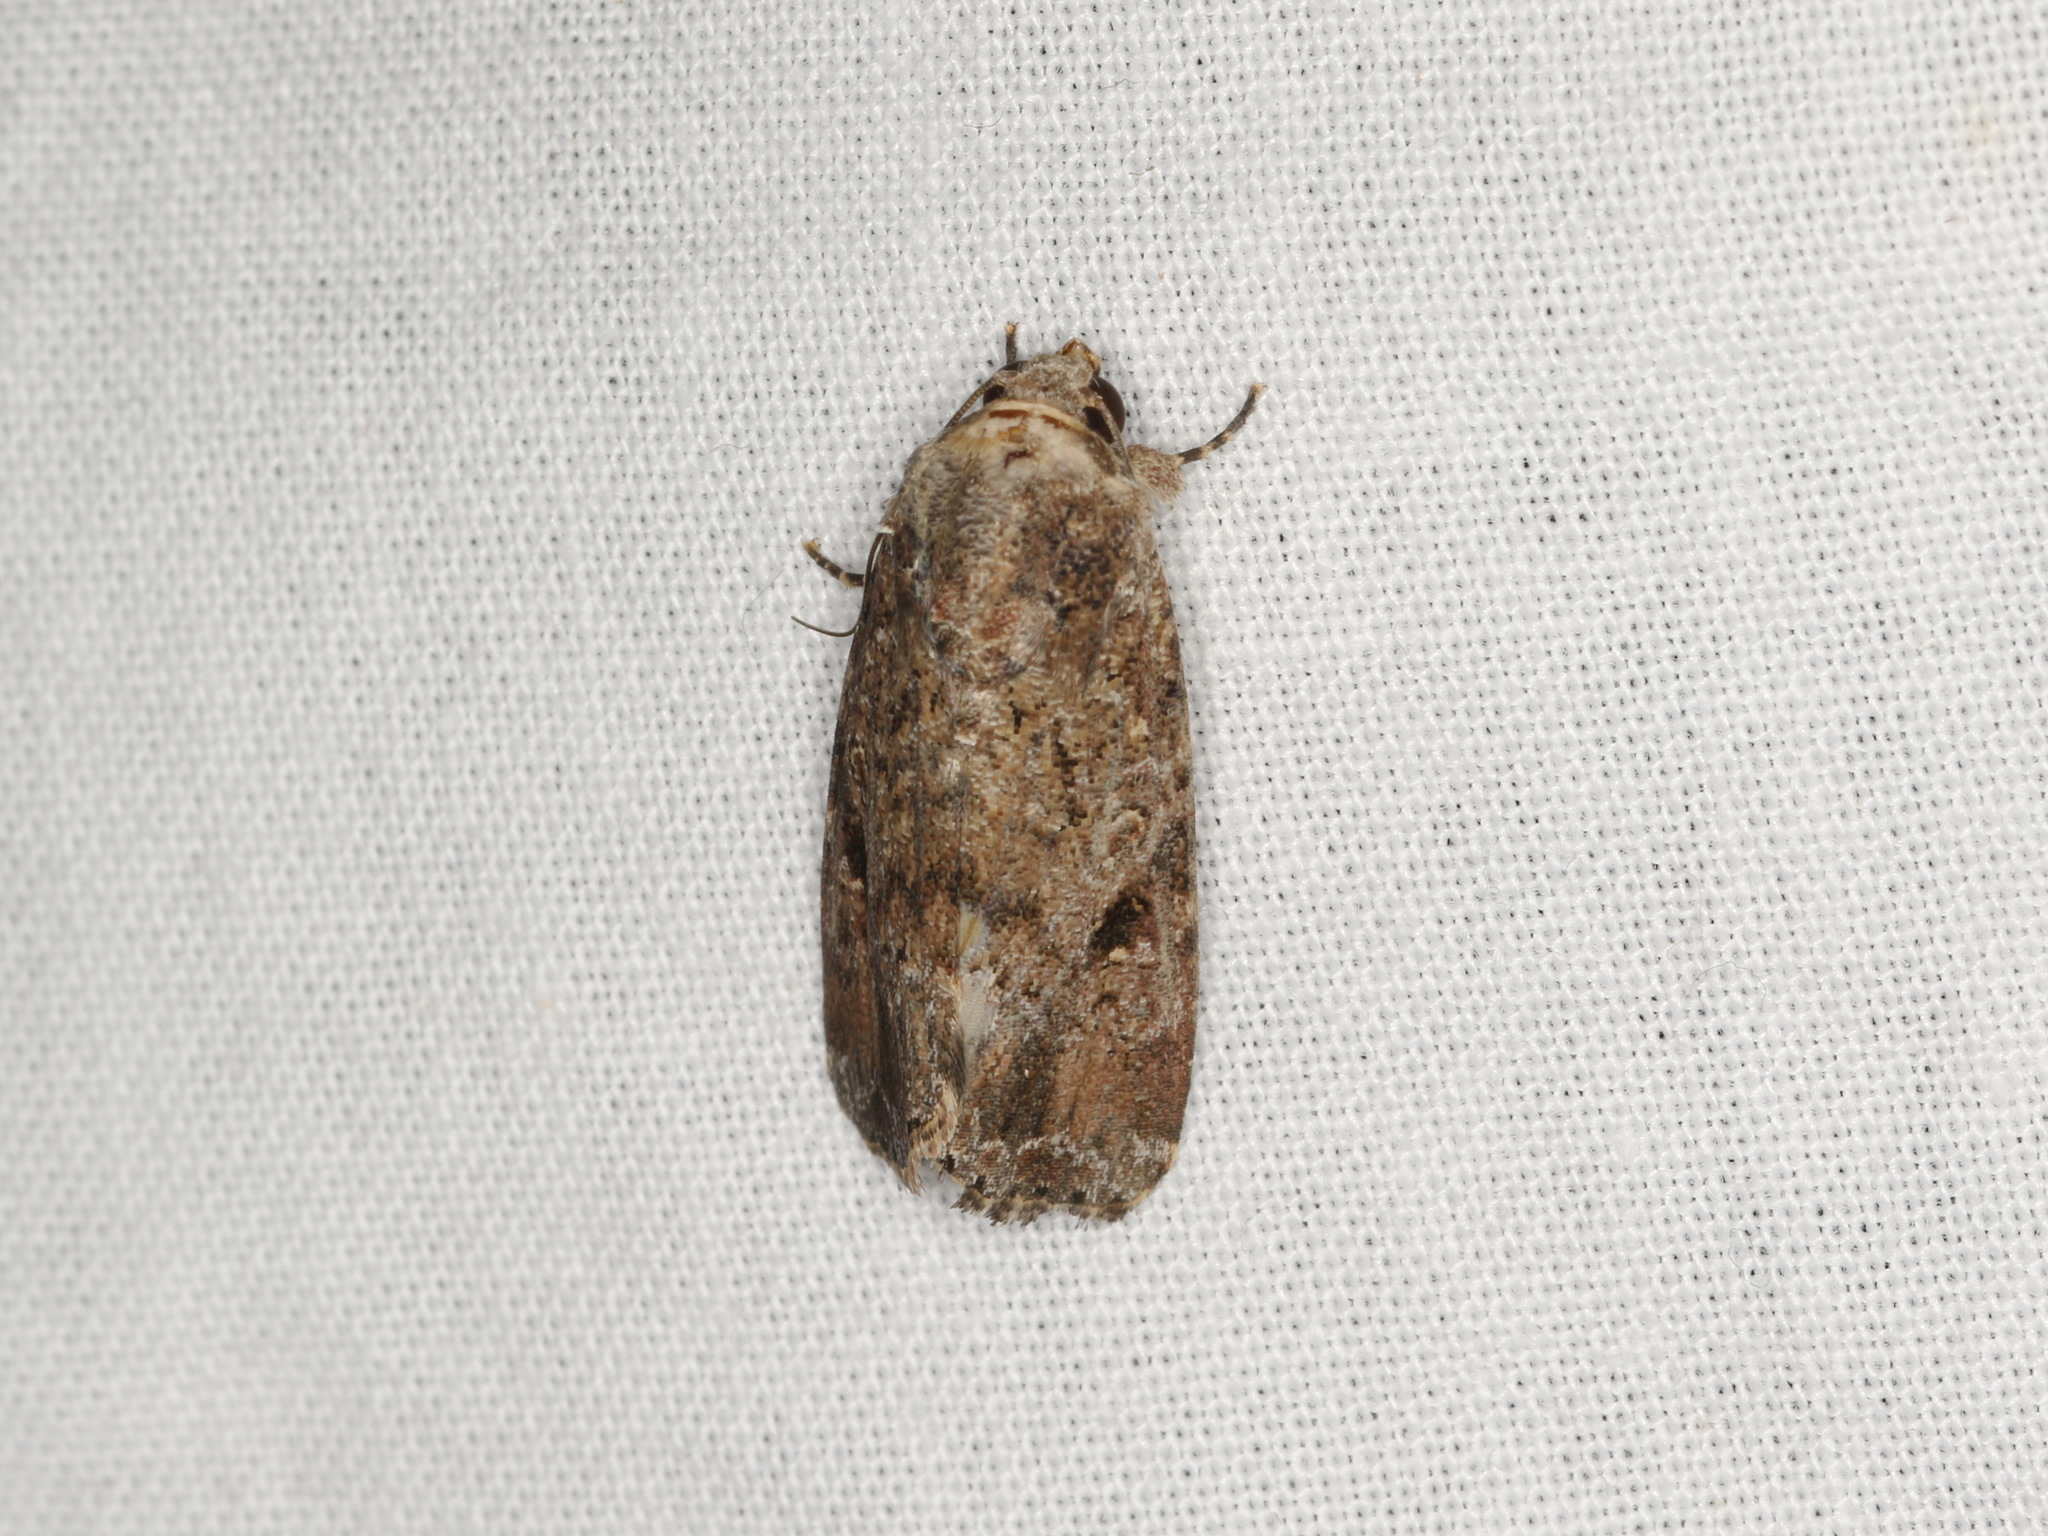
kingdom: Animalia
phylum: Arthropoda
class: Insecta
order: Lepidoptera
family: Noctuidae
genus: Spodoptera
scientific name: Spodoptera mauritia
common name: Lawn armyworm
